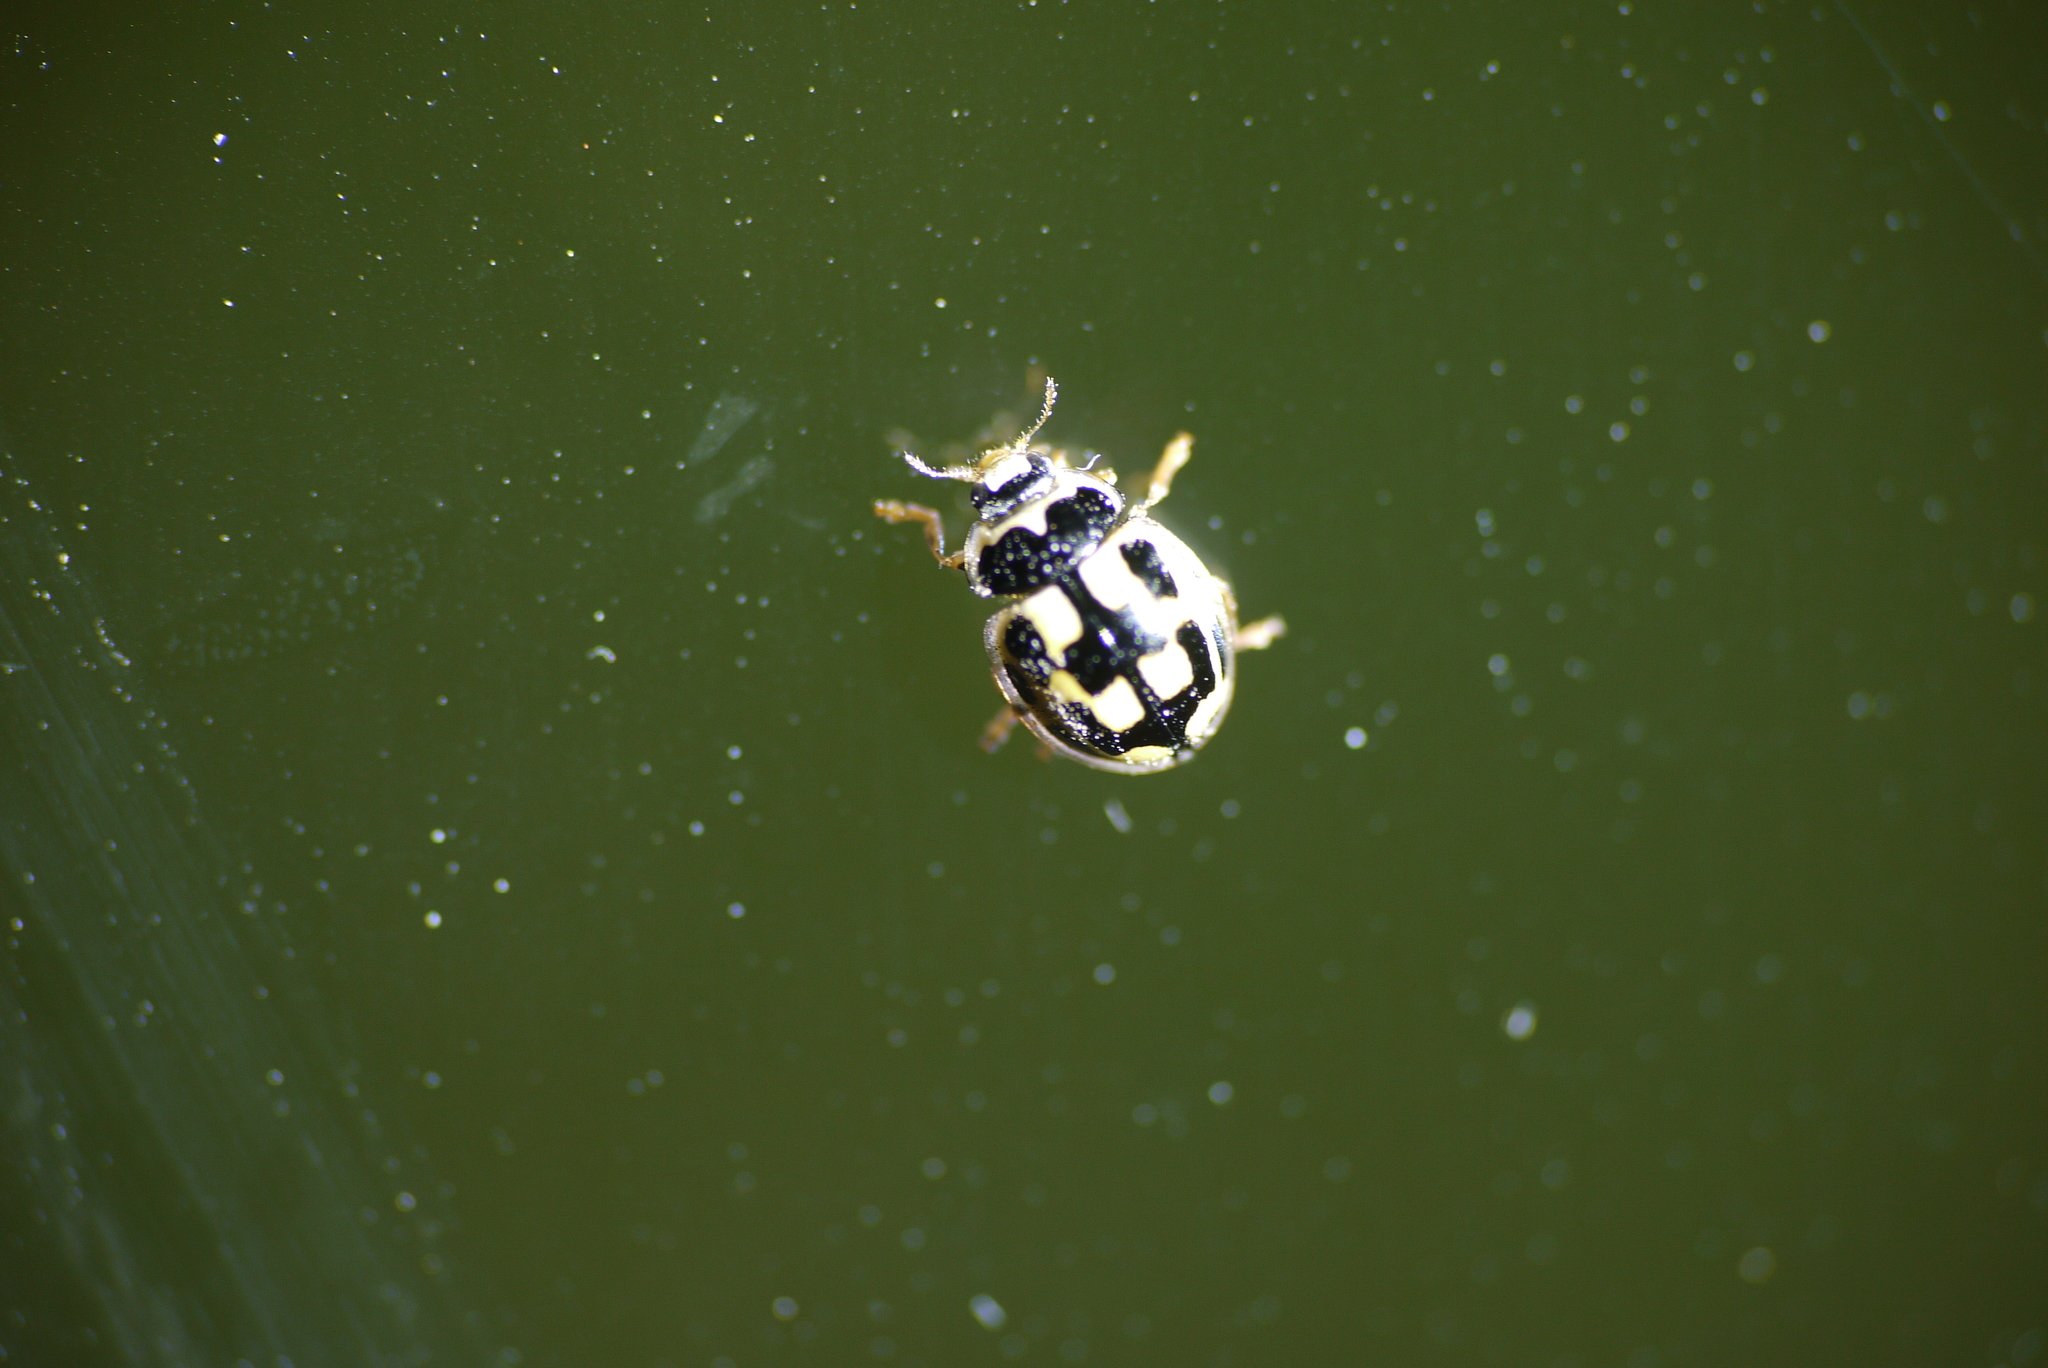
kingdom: Animalia
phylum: Arthropoda
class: Insecta
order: Coleoptera
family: Coccinellidae
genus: Propylaea
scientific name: Propylaea quatuordecimpunctata
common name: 14-spotted ladybird beetle
